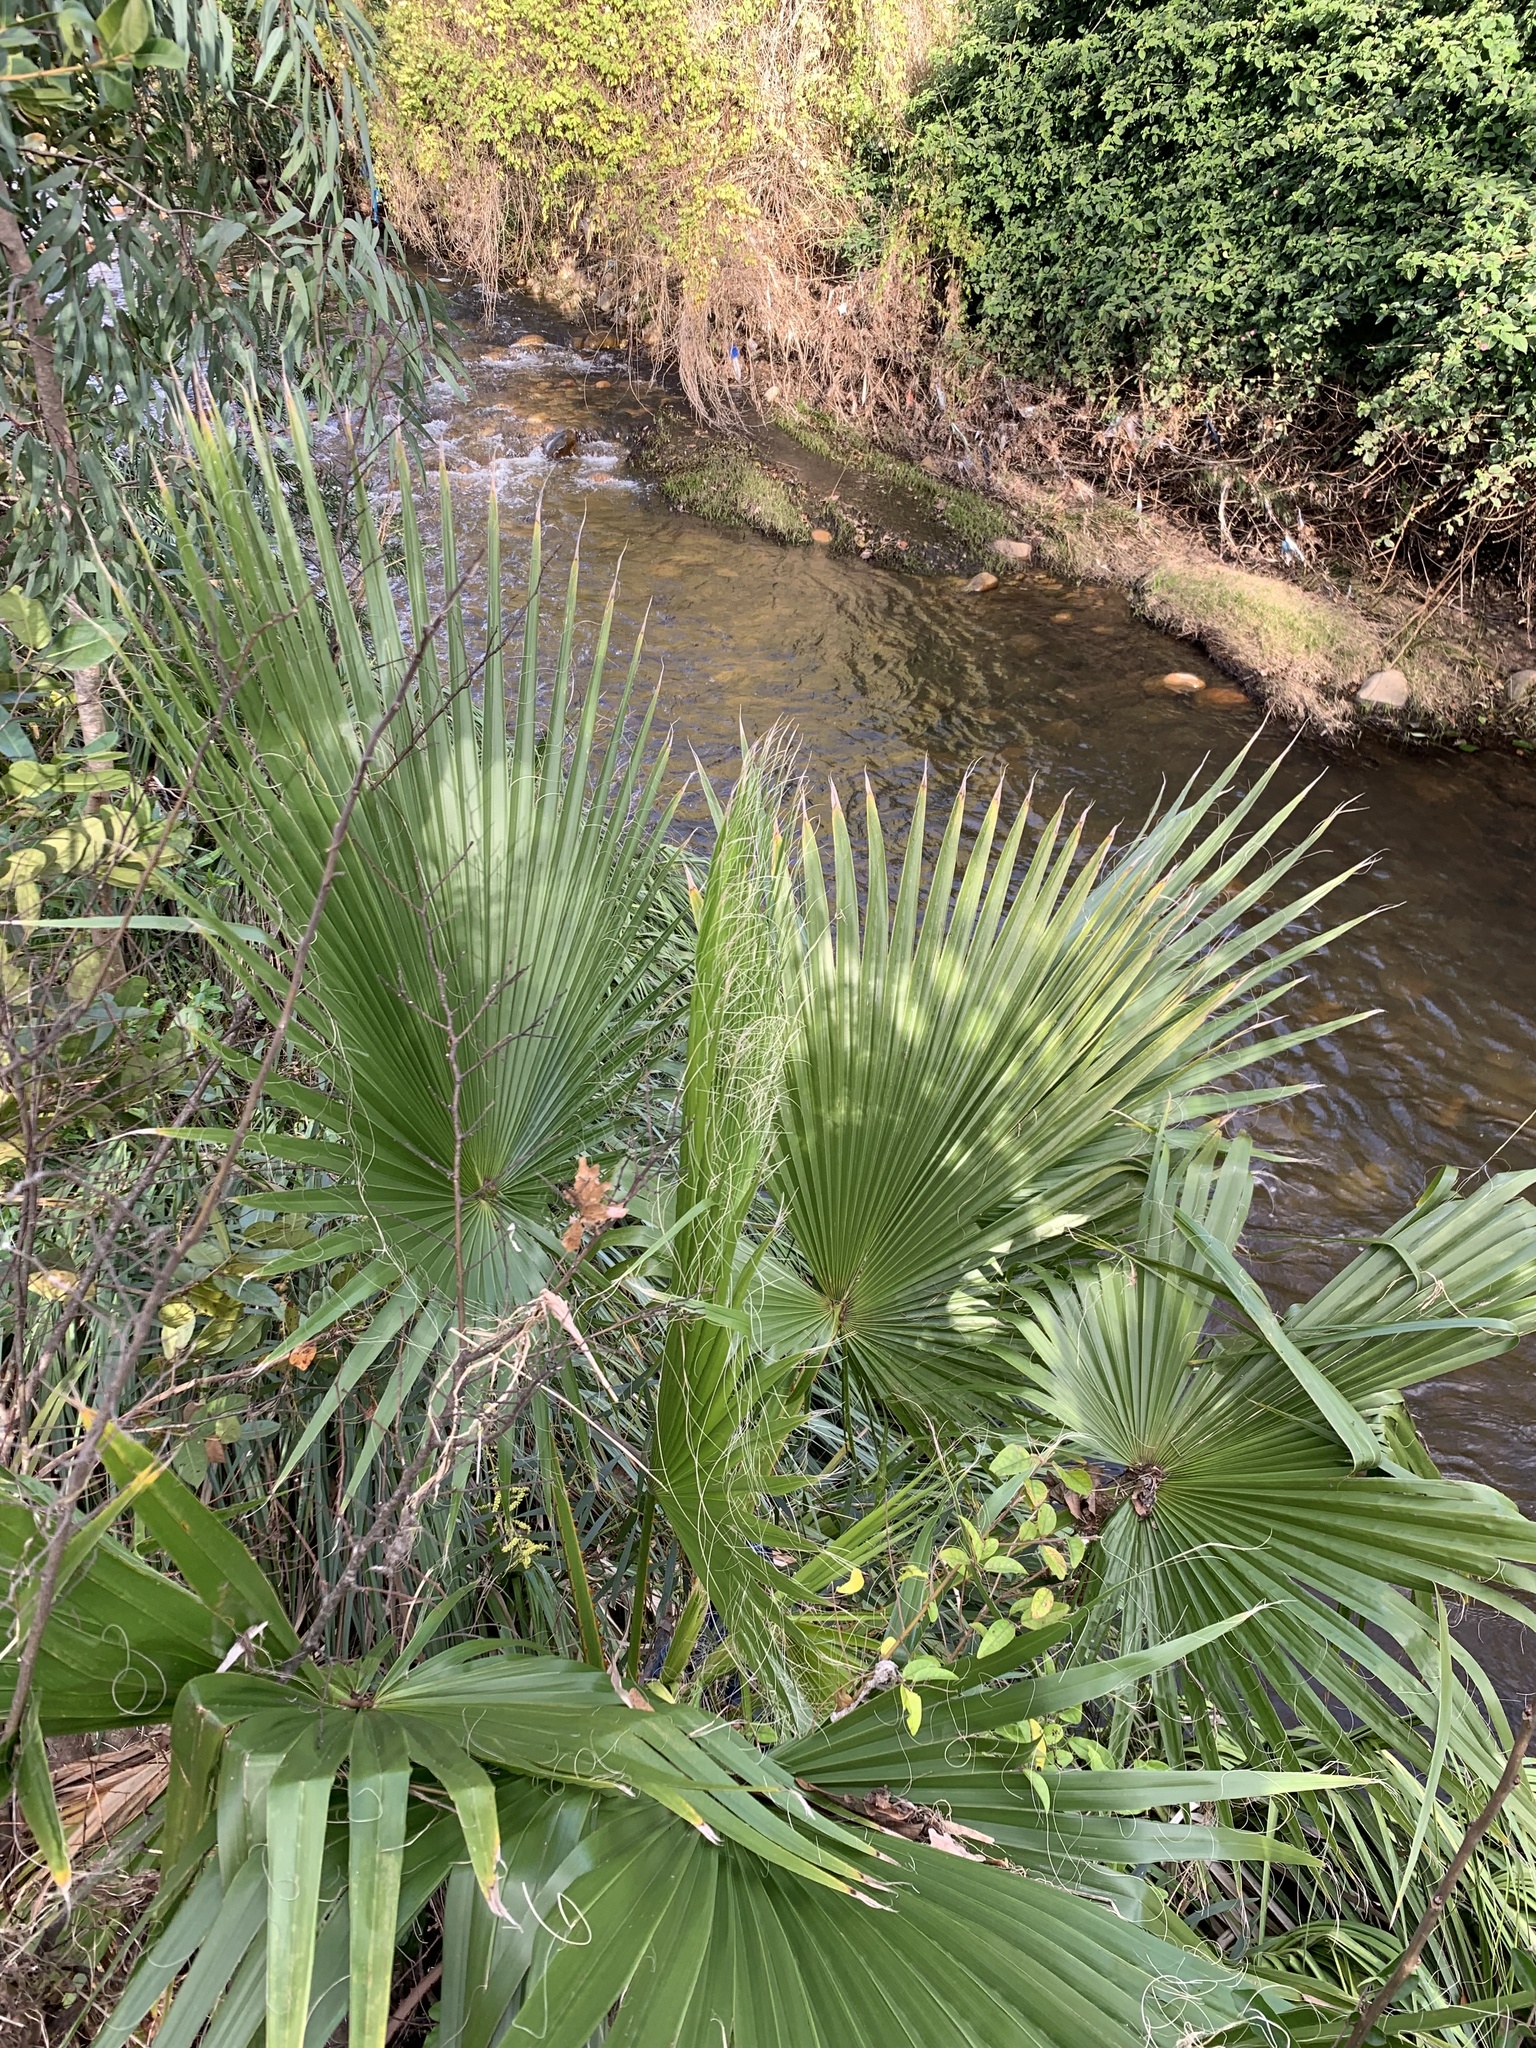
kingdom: Plantae
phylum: Tracheophyta
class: Liliopsida
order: Arecales
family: Arecaceae
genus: Washingtonia
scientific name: Washingtonia robusta
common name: Mexican fan palm
